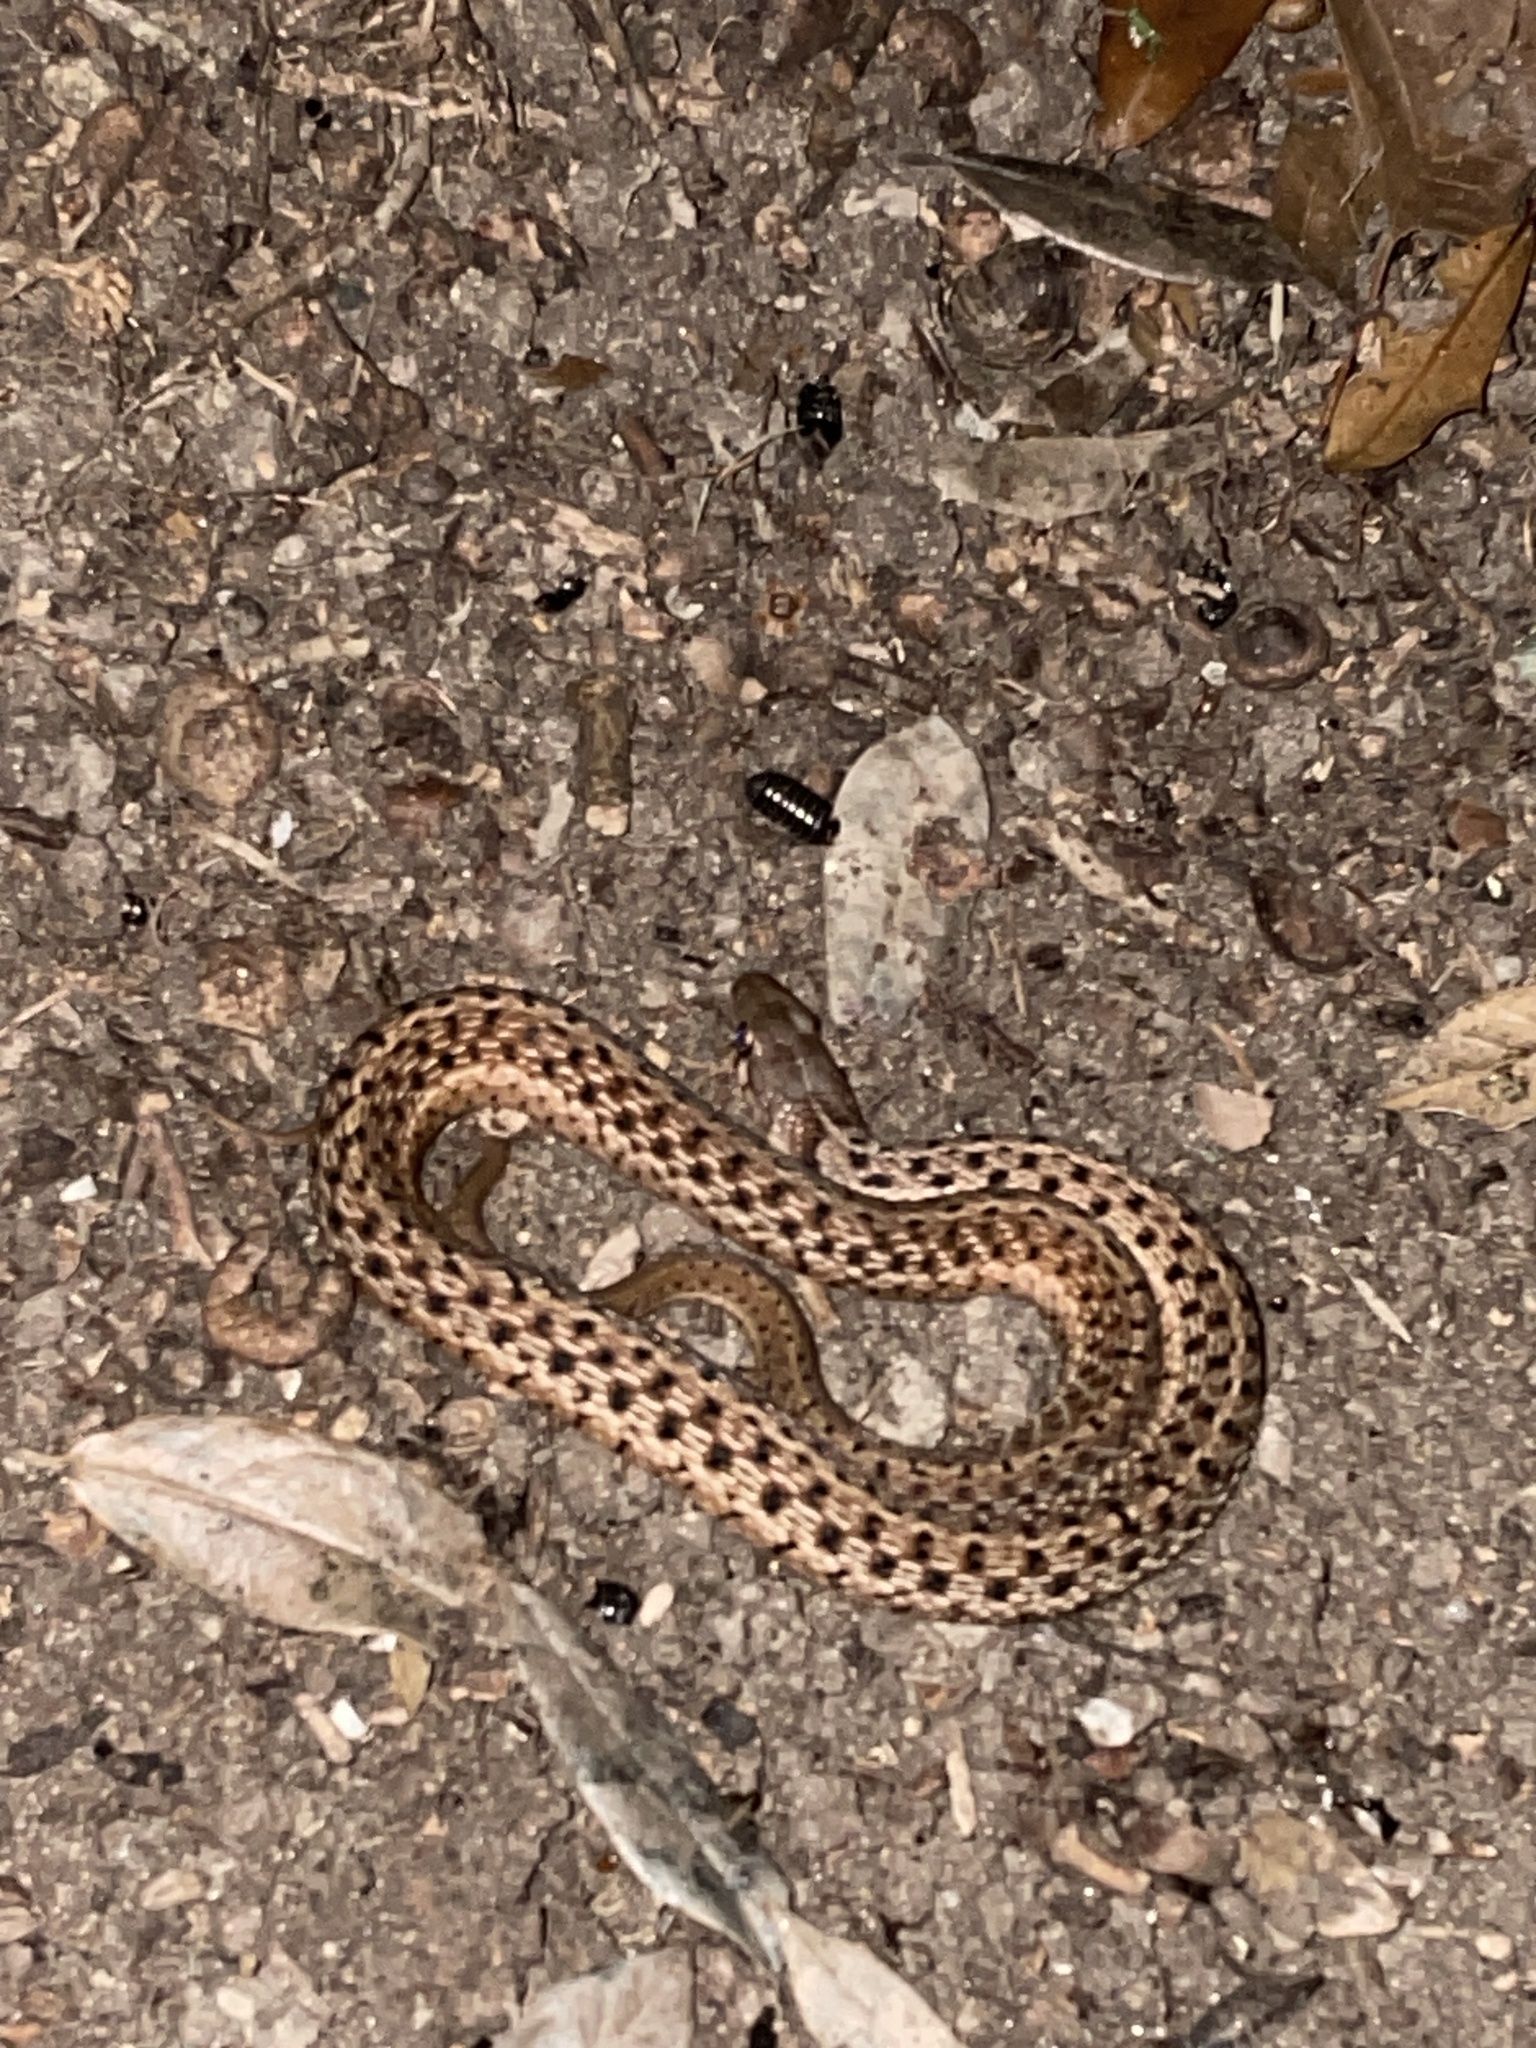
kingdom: Animalia
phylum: Chordata
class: Squamata
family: Colubridae
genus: Thamnophis
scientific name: Thamnophis sirtalis
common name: Common garter snake
